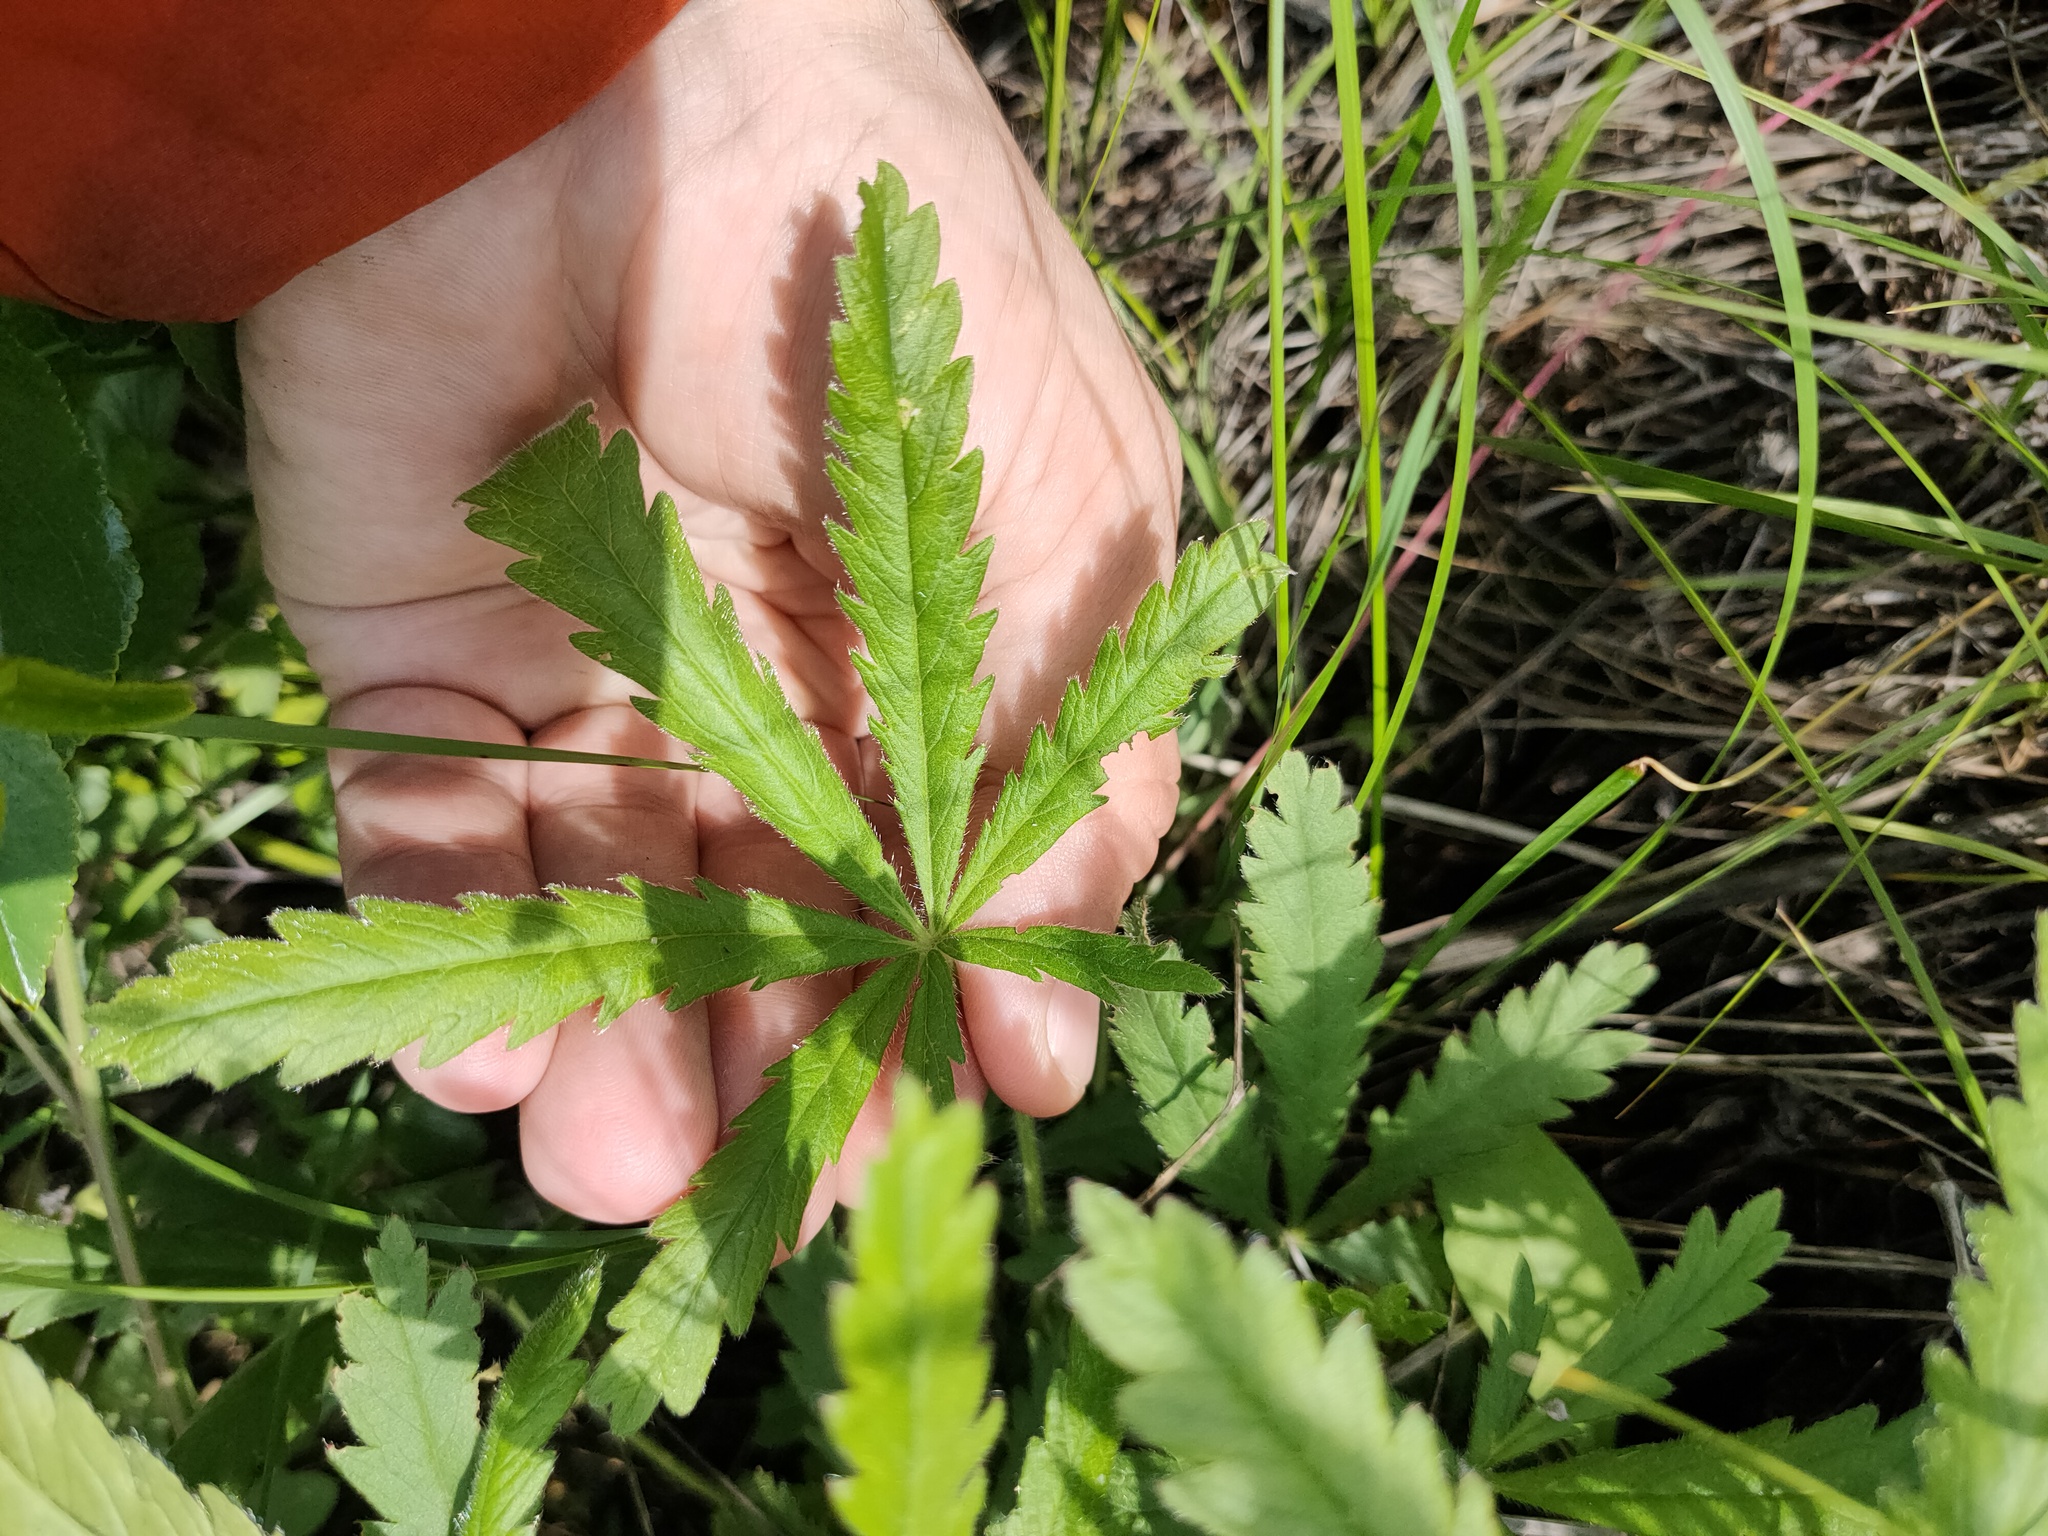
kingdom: Plantae
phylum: Tracheophyta
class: Magnoliopsida
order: Rosales
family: Rosaceae
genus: Potentilla
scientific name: Potentilla humifusa
